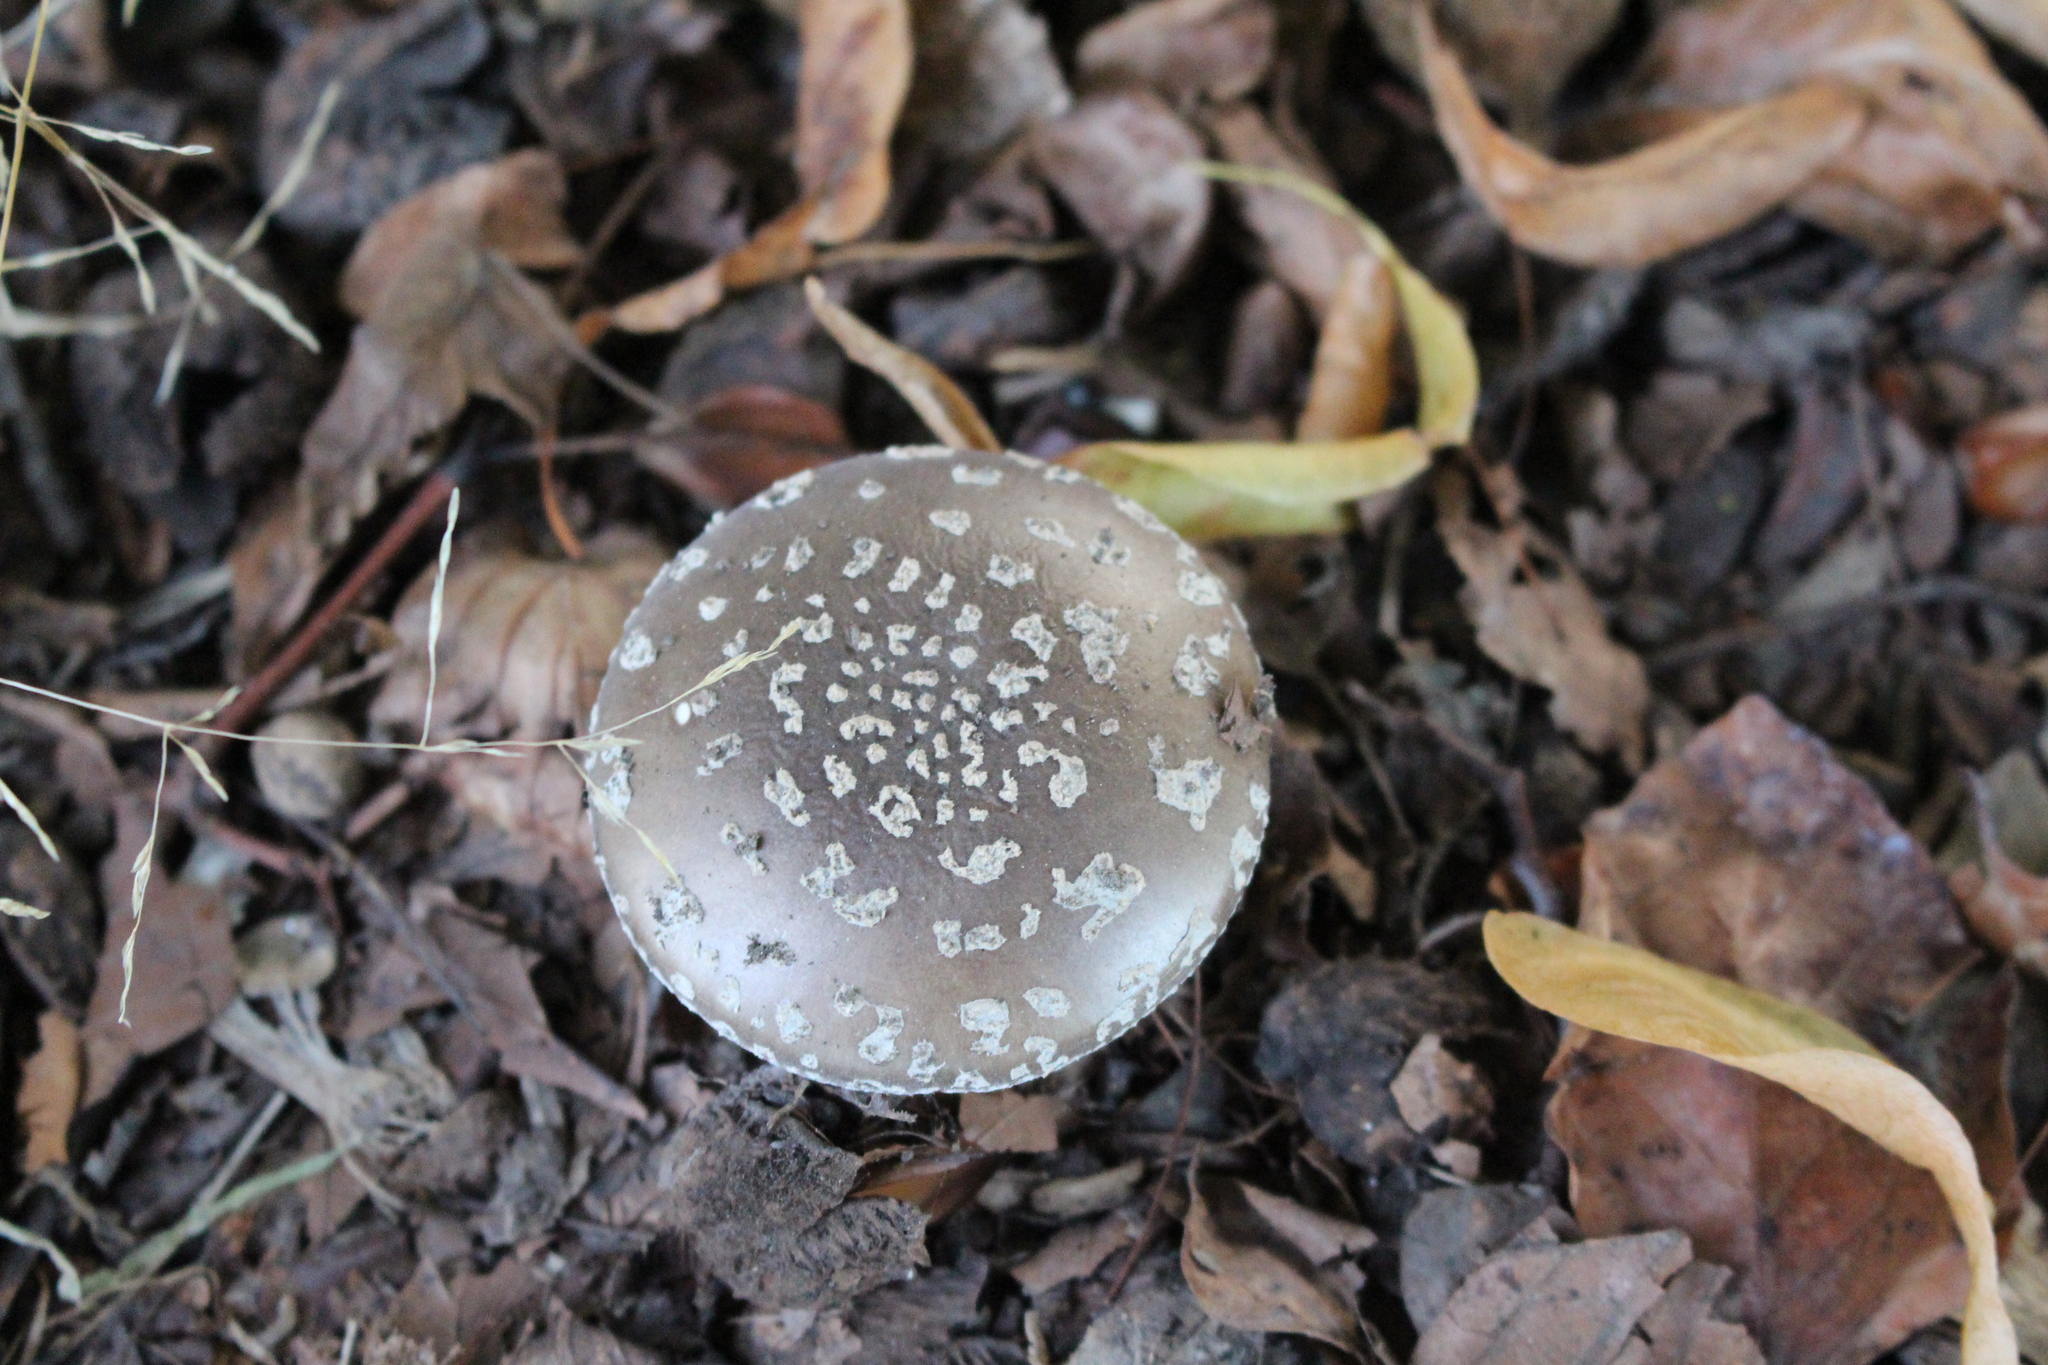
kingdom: Fungi
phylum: Basidiomycota
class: Agaricomycetes
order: Agaricales
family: Amanitaceae
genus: Amanita
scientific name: Amanita excelsa
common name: European false blusher
